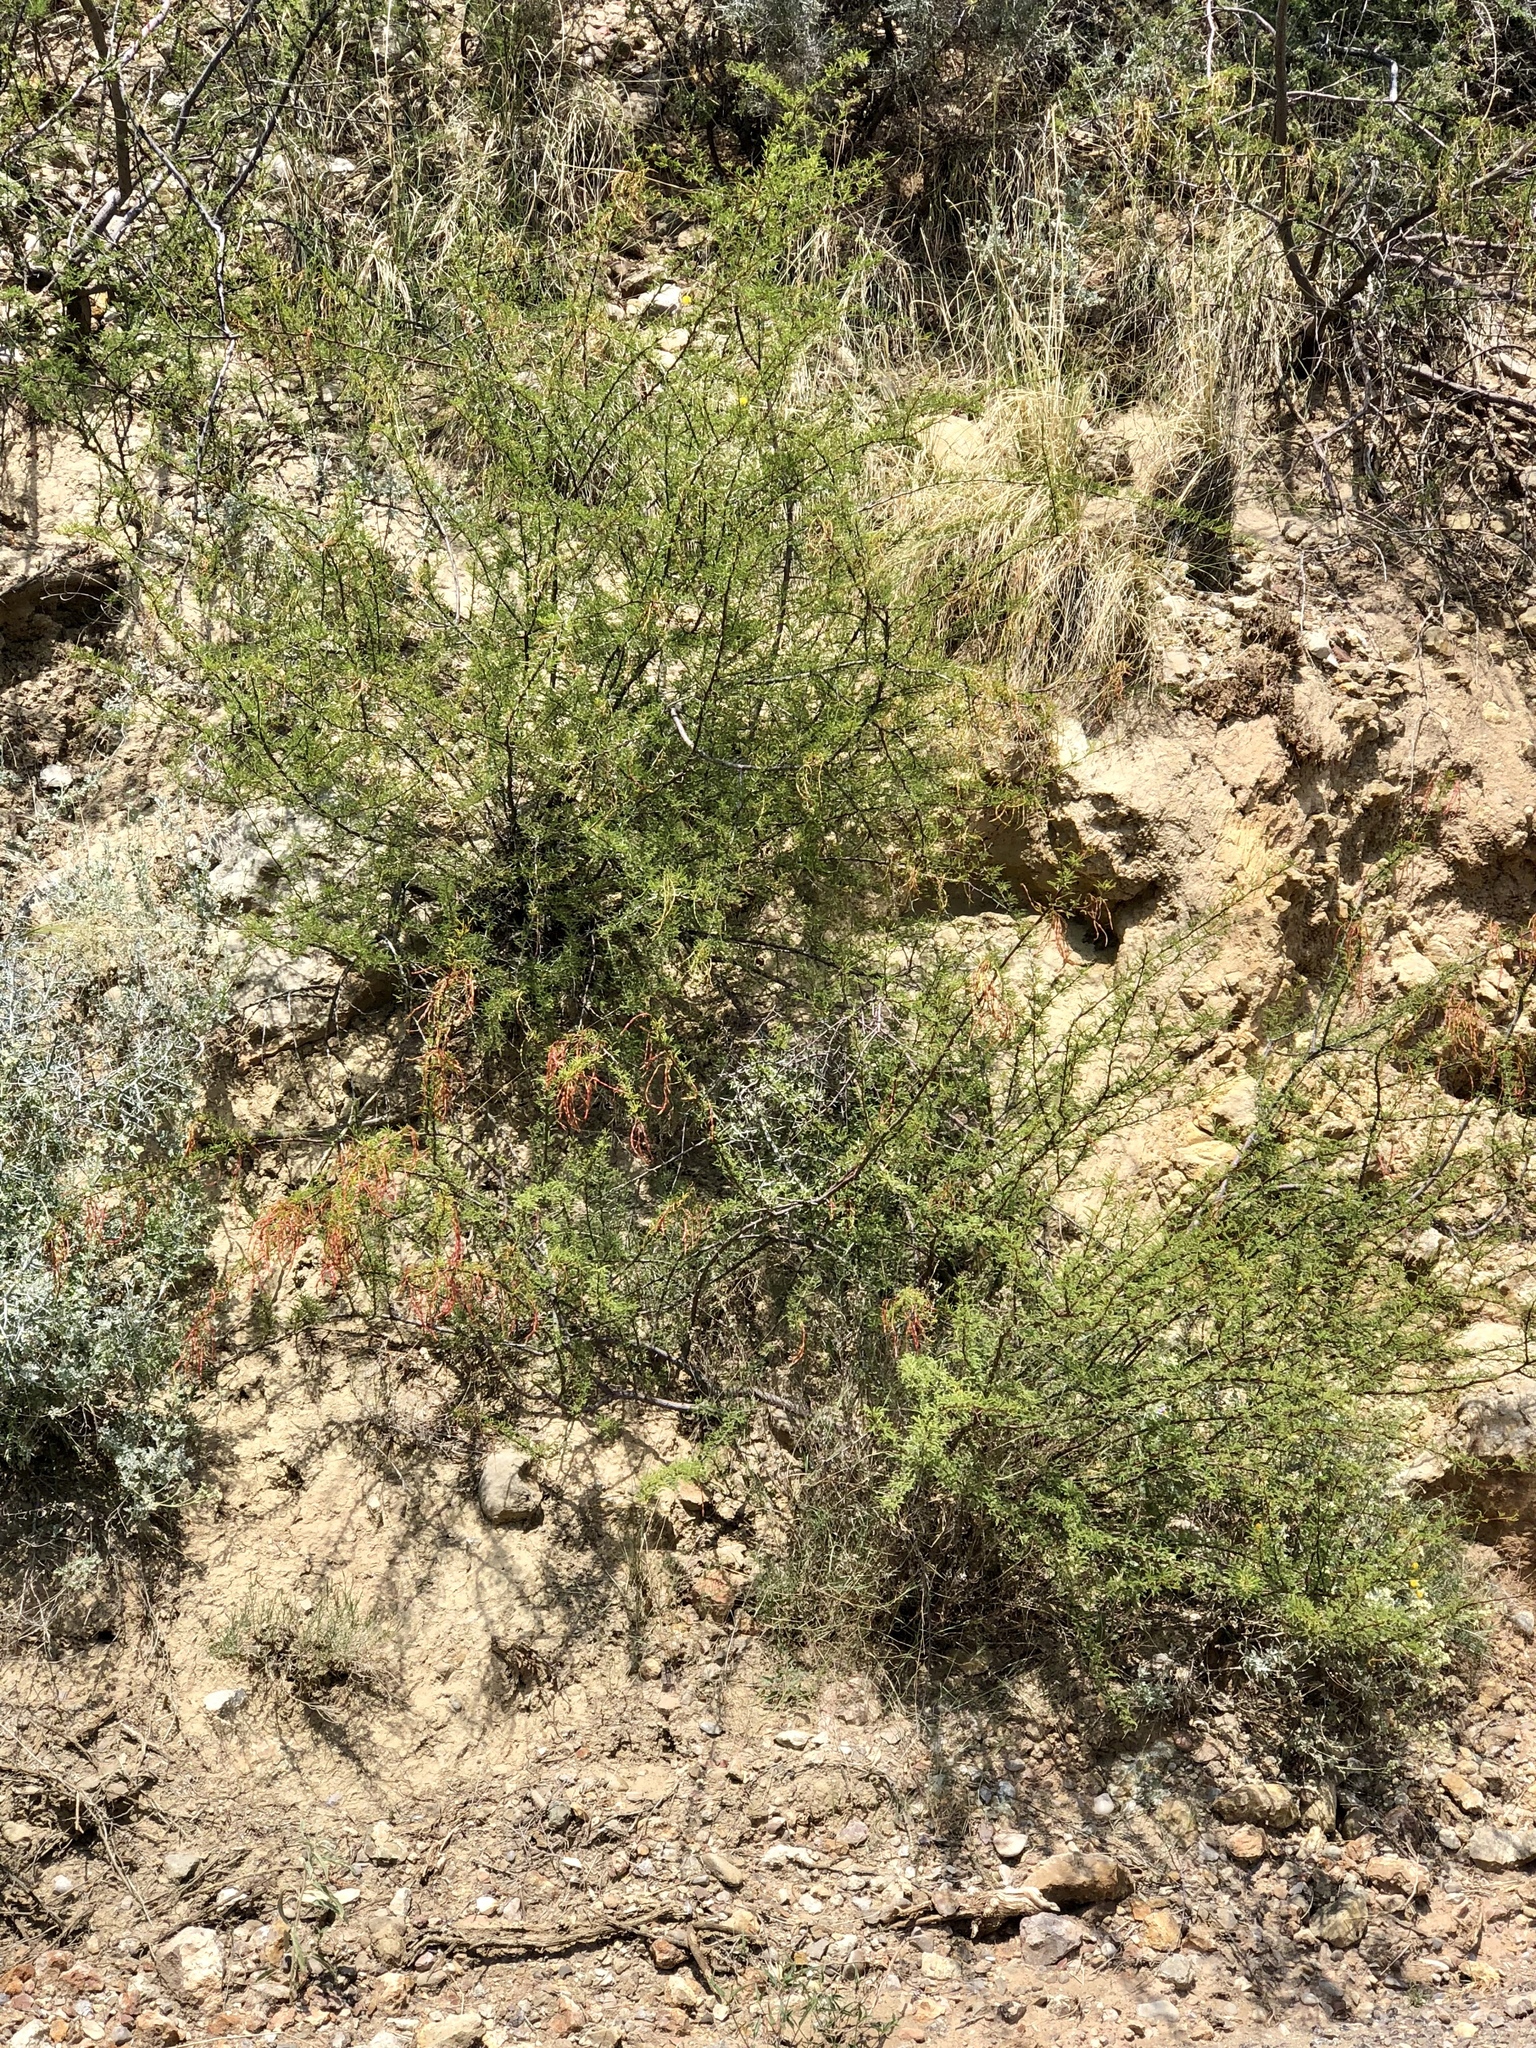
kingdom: Plantae
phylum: Tracheophyta
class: Magnoliopsida
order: Fabales
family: Fabaceae
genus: Vachellia
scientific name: Vachellia constricta
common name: Mescat acacia
